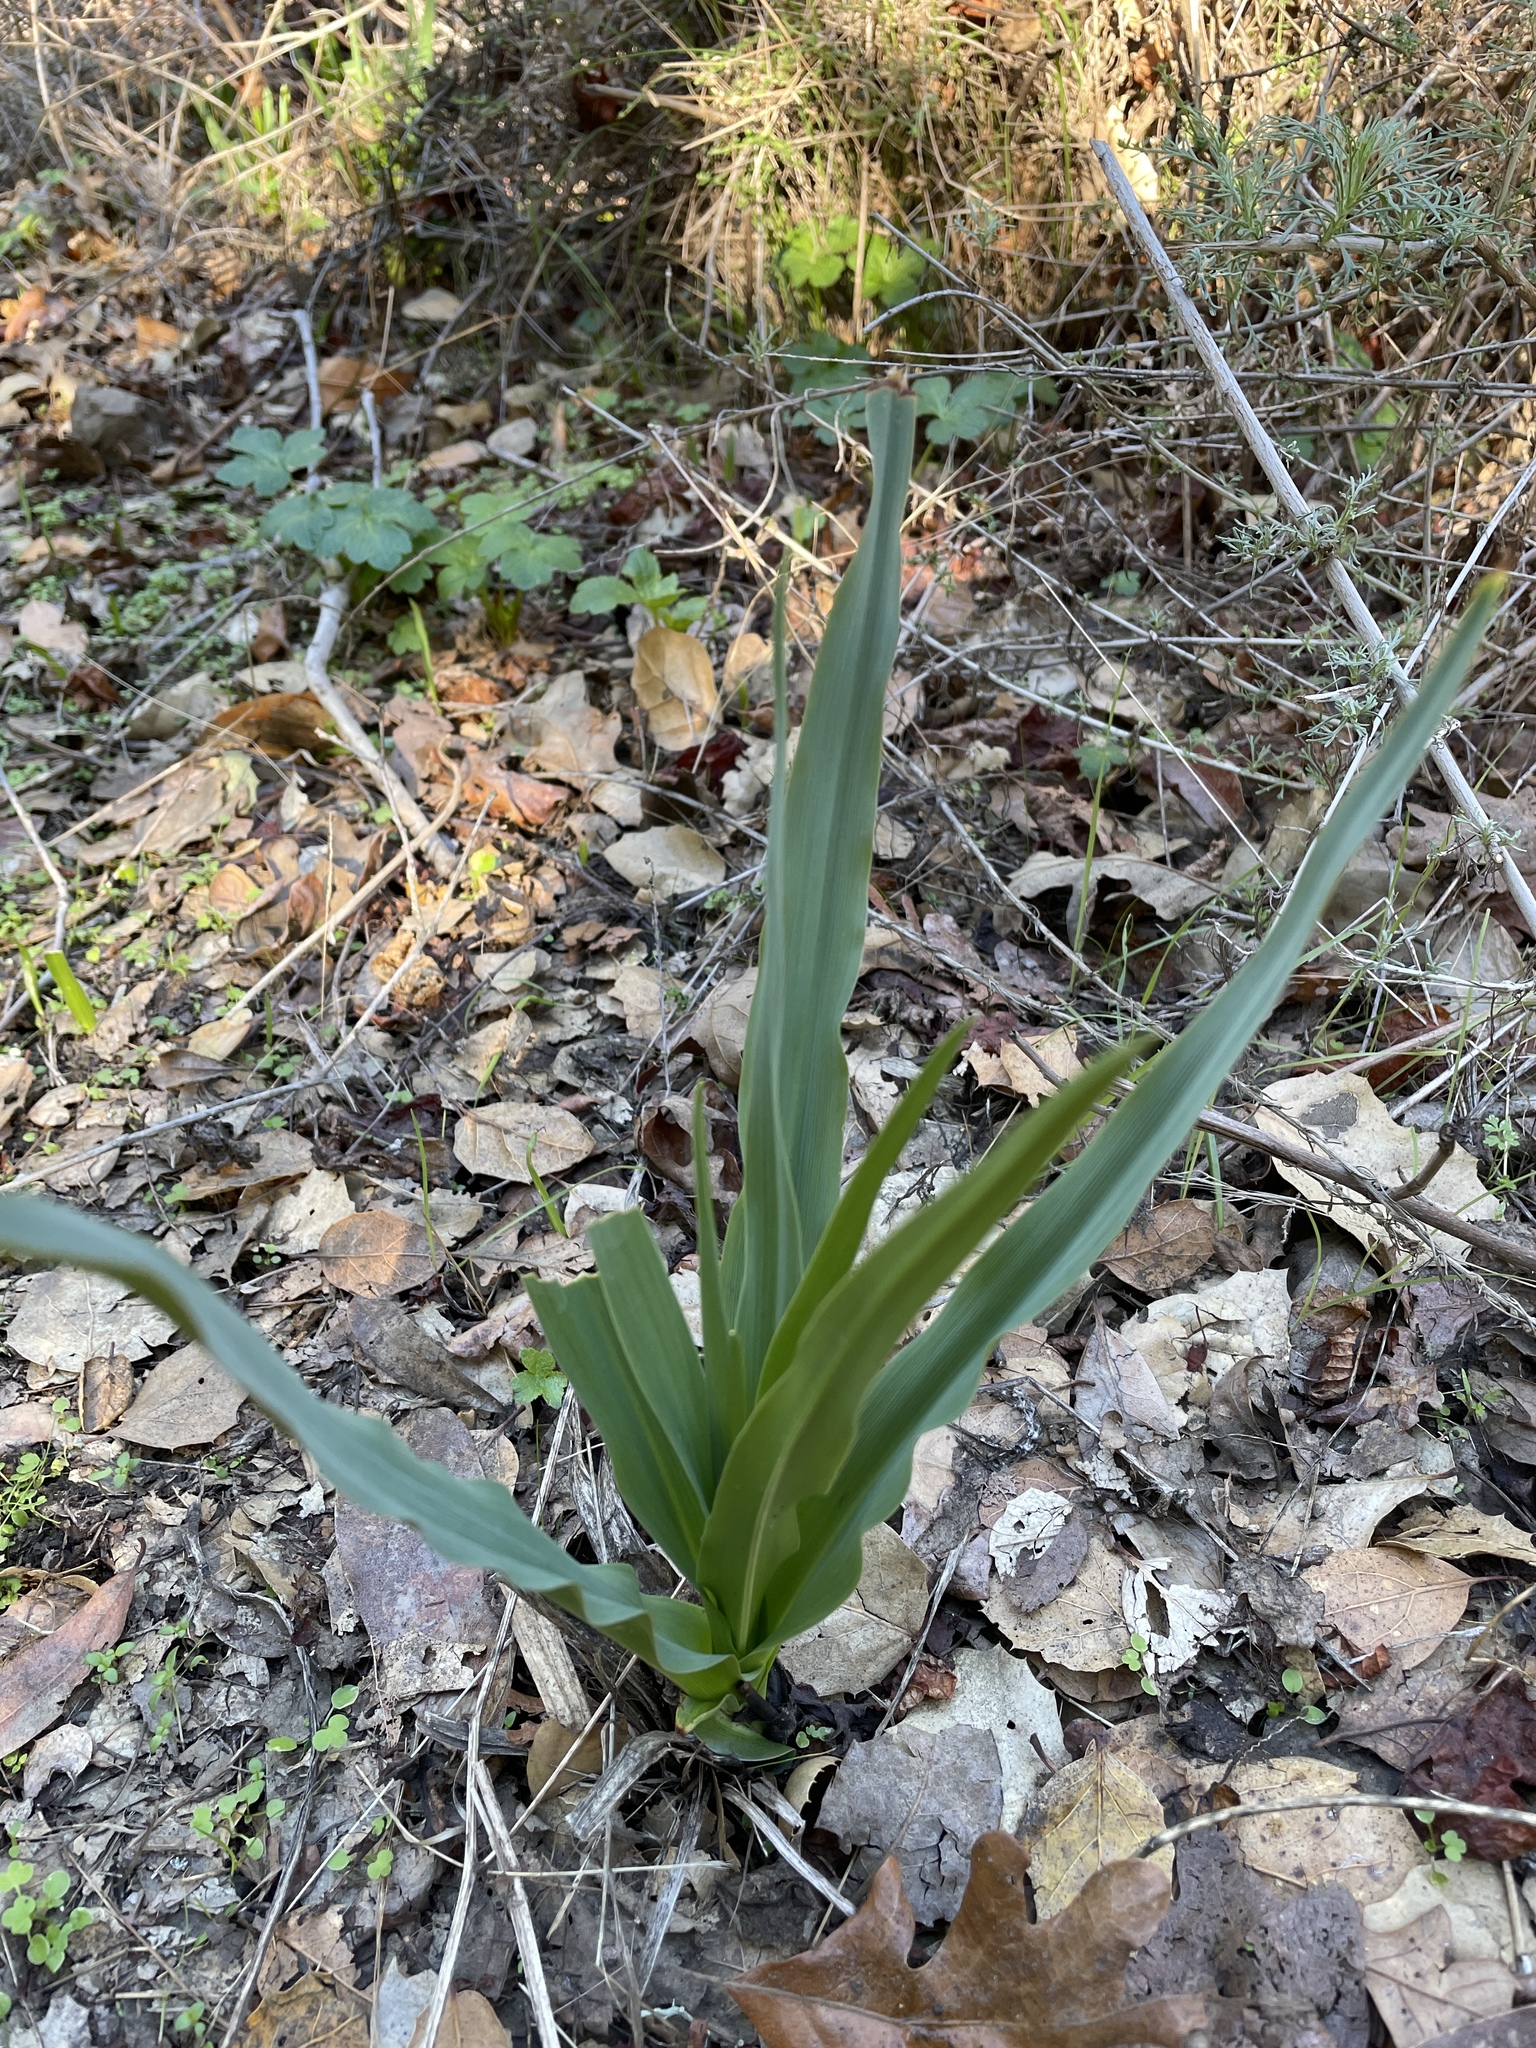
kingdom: Plantae
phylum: Tracheophyta
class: Liliopsida
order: Asparagales
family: Asparagaceae
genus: Chlorogalum
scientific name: Chlorogalum pomeridianum
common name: Amole
